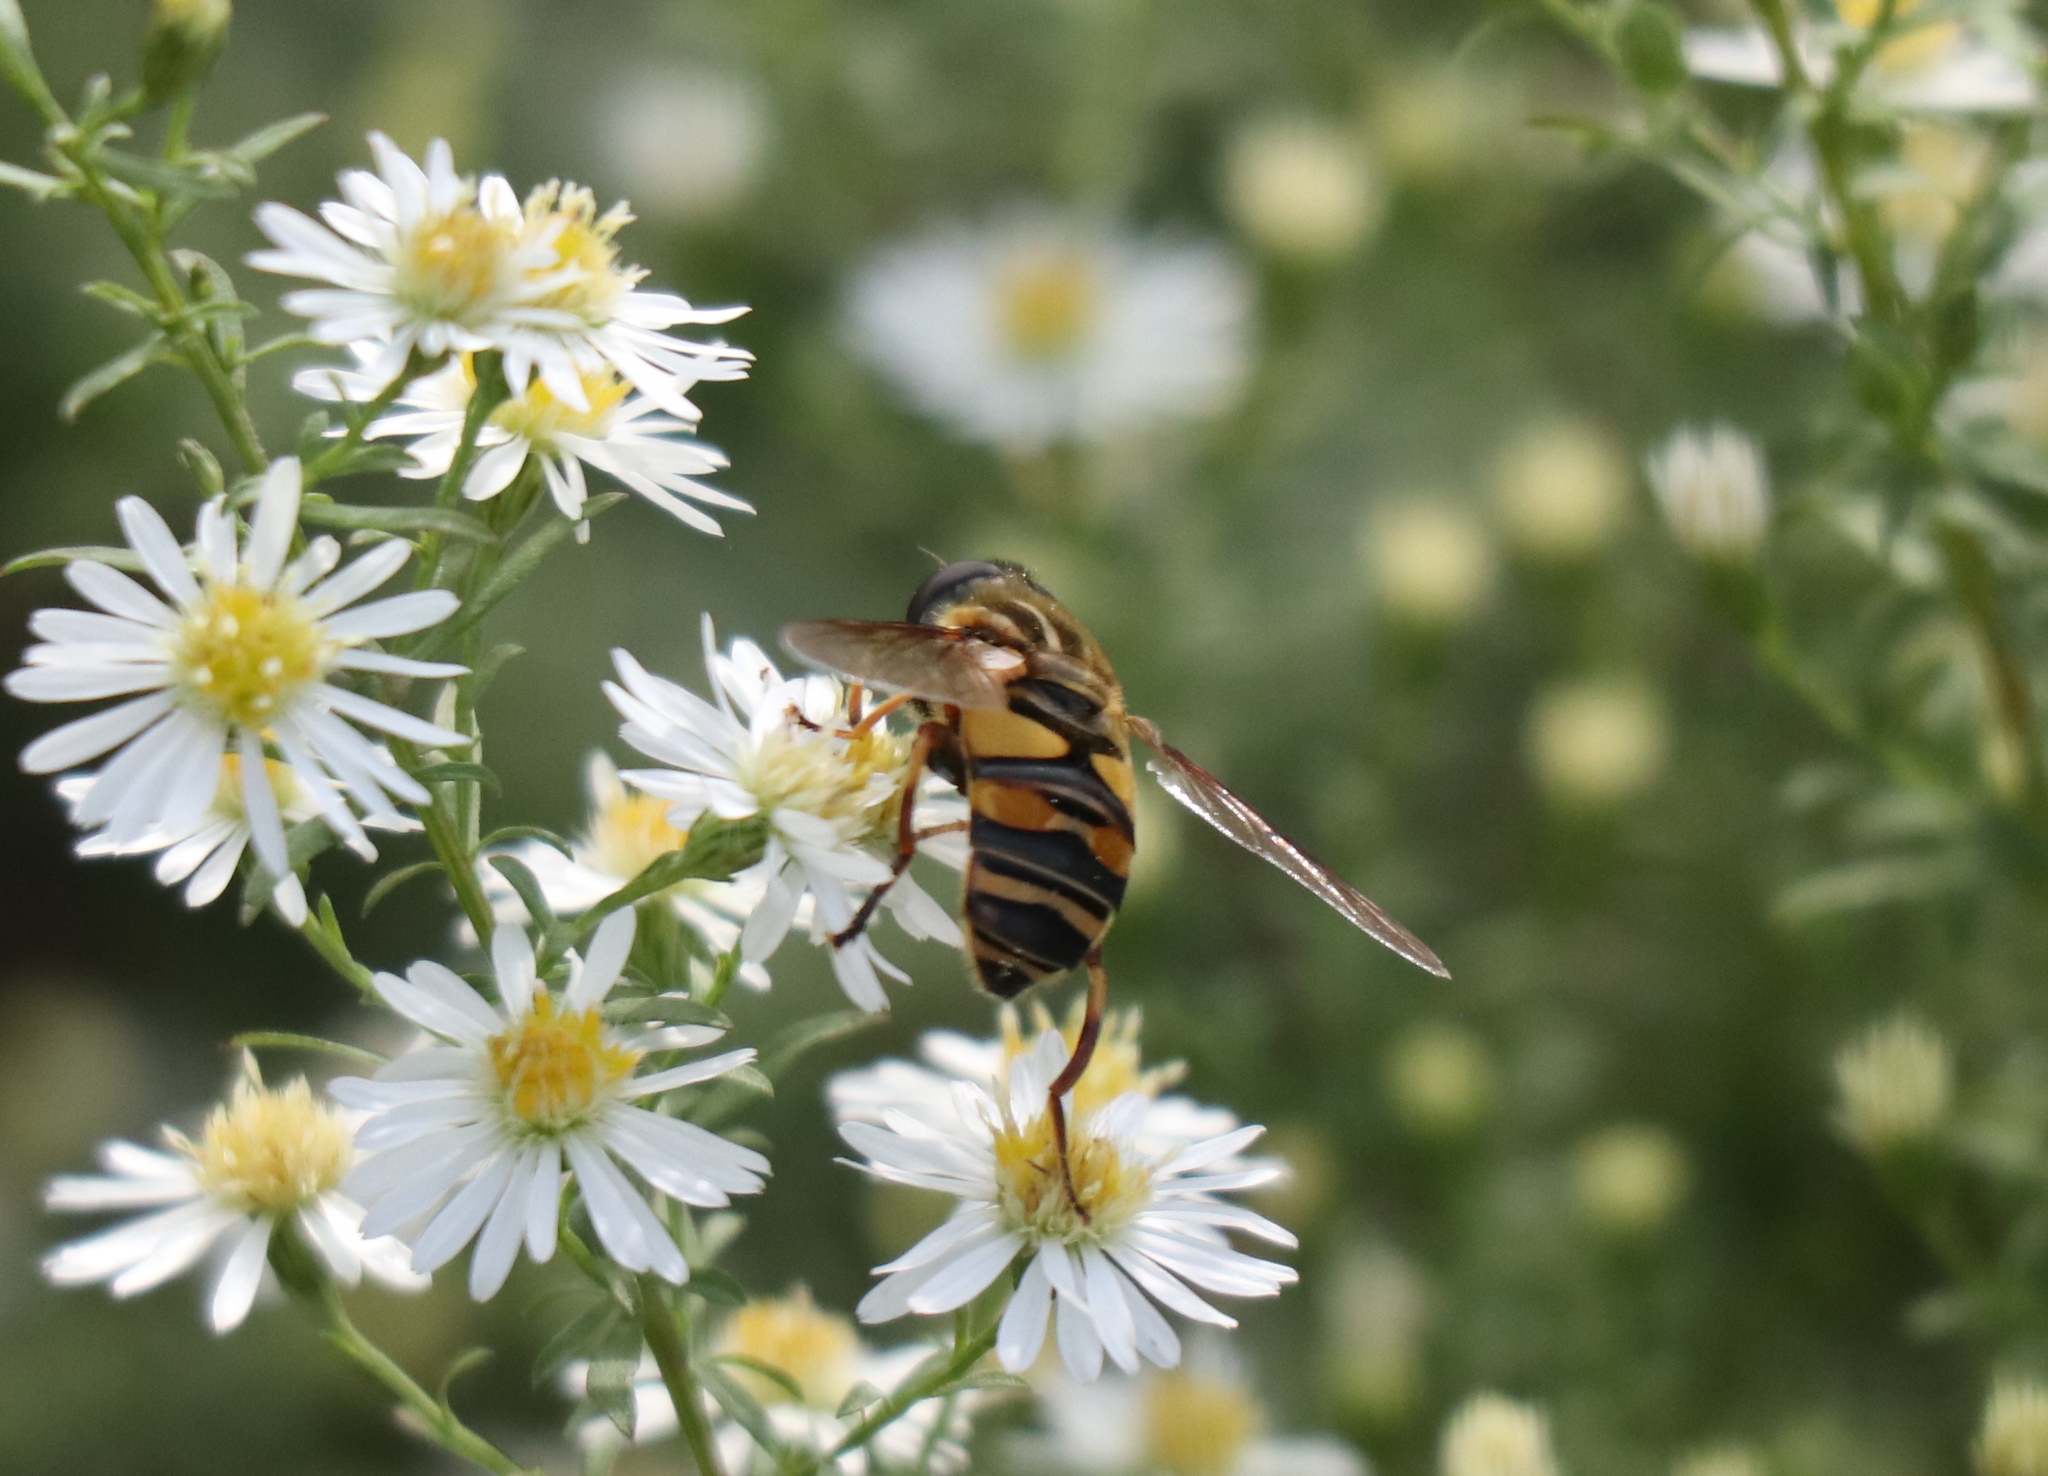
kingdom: Animalia
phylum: Arthropoda
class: Insecta
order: Diptera
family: Syrphidae
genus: Helophilus
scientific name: Helophilus fasciatus
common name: Narrow-headed marsh fly
